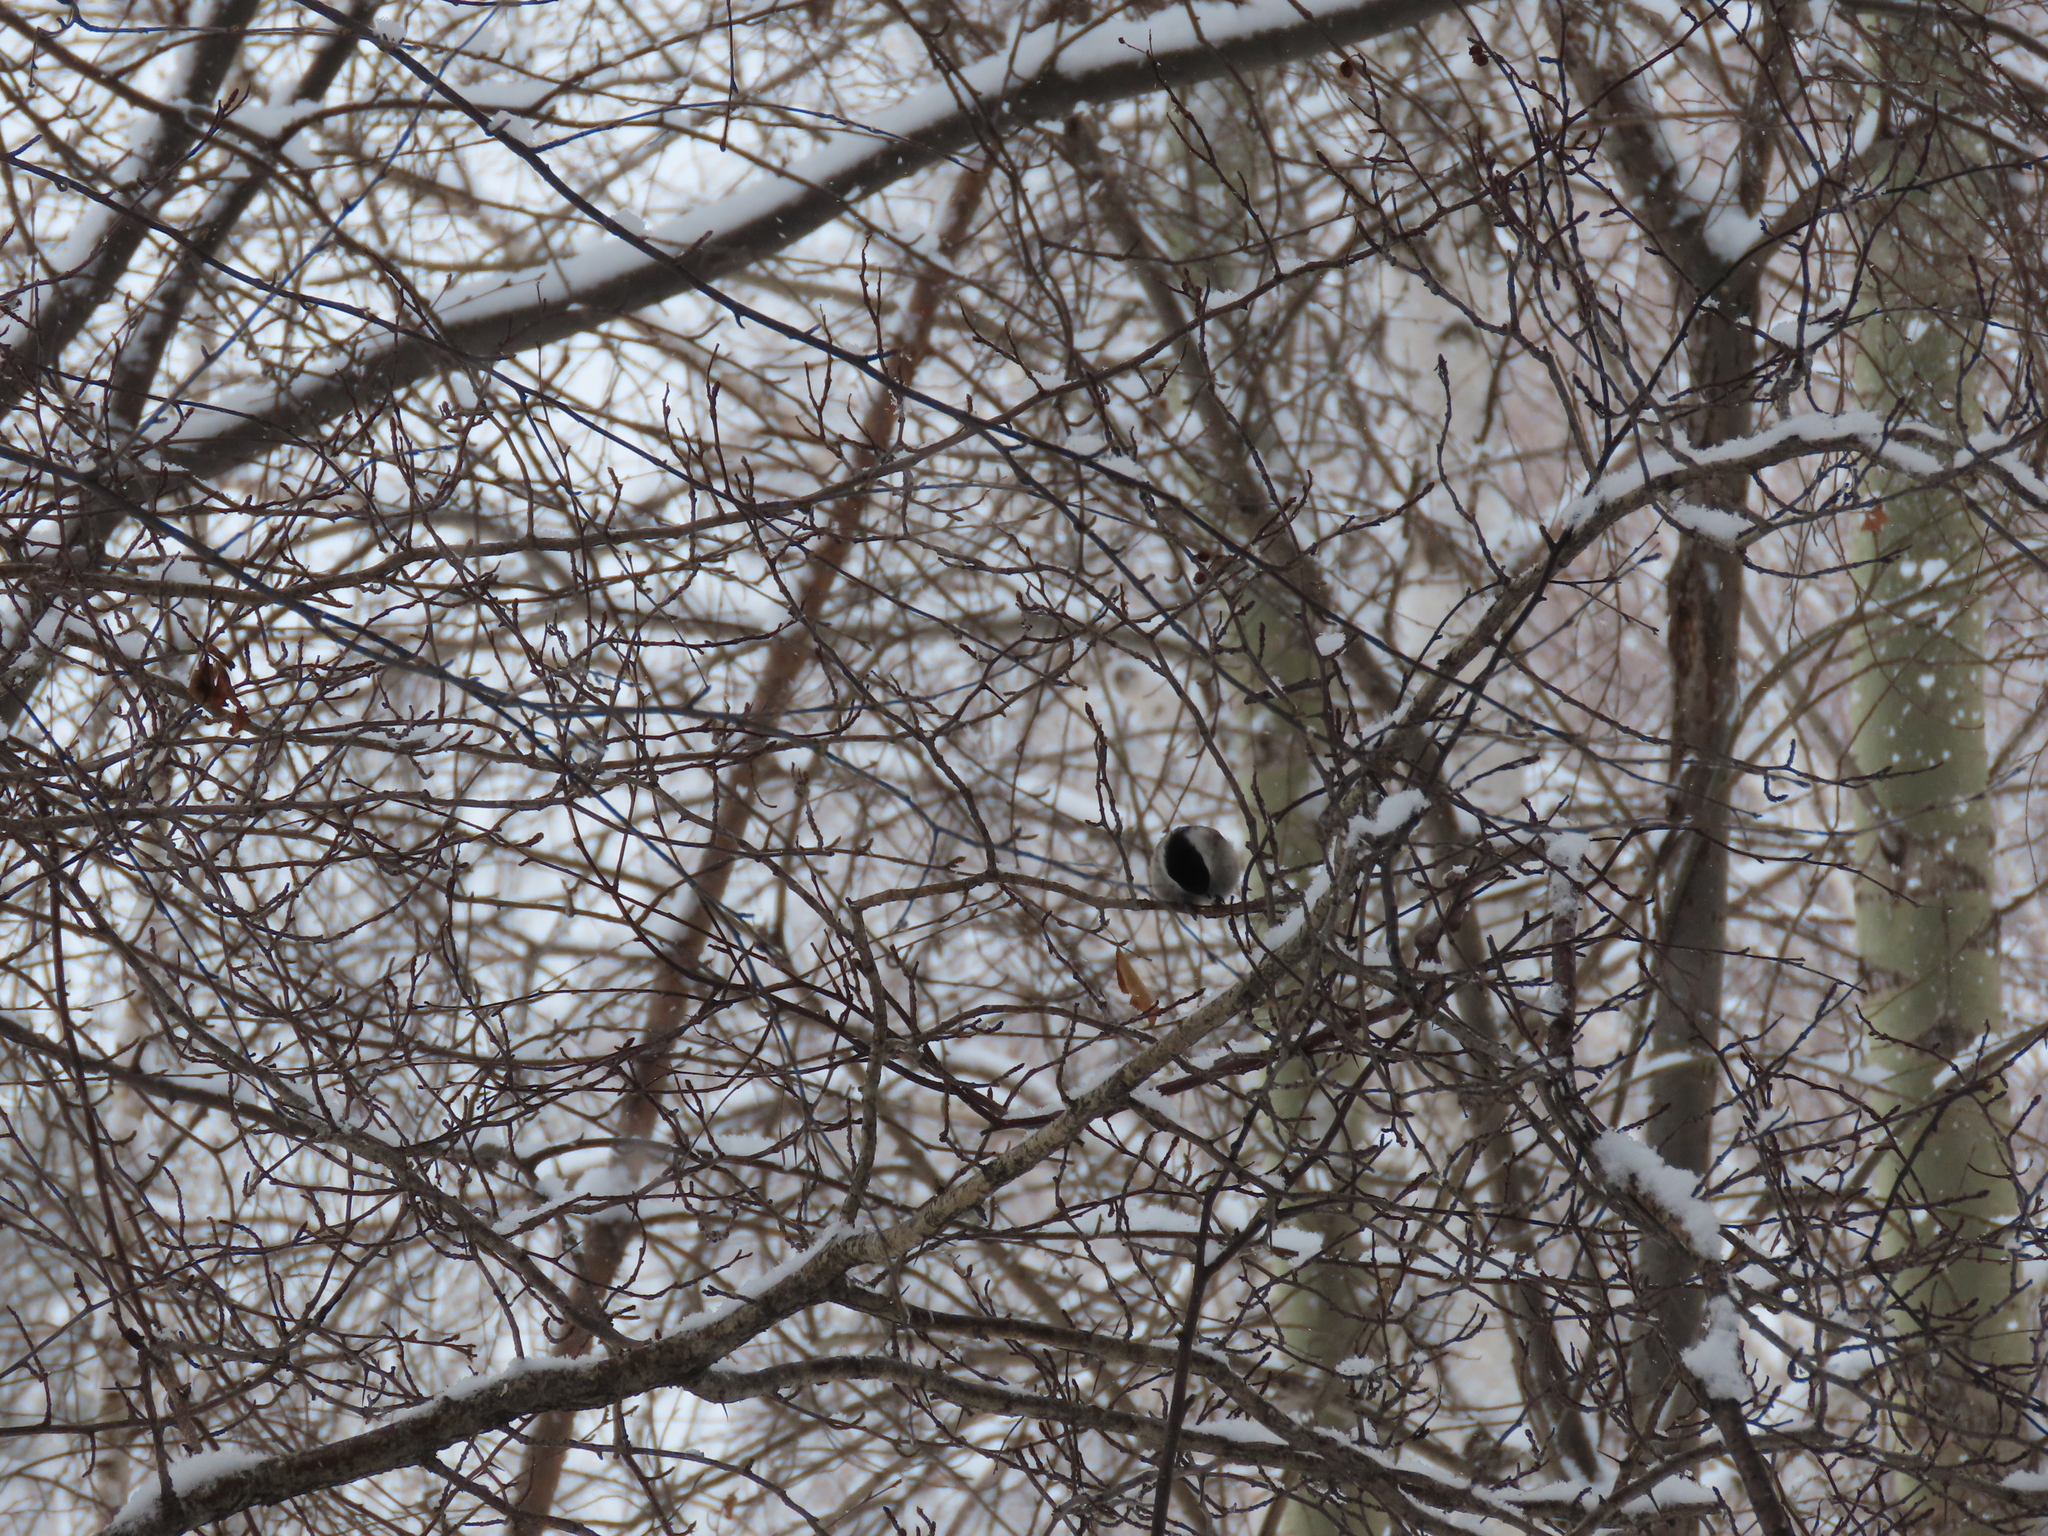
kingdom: Animalia
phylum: Chordata
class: Aves
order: Passeriformes
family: Paridae
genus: Poecile
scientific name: Poecile montanus
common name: Willow tit
